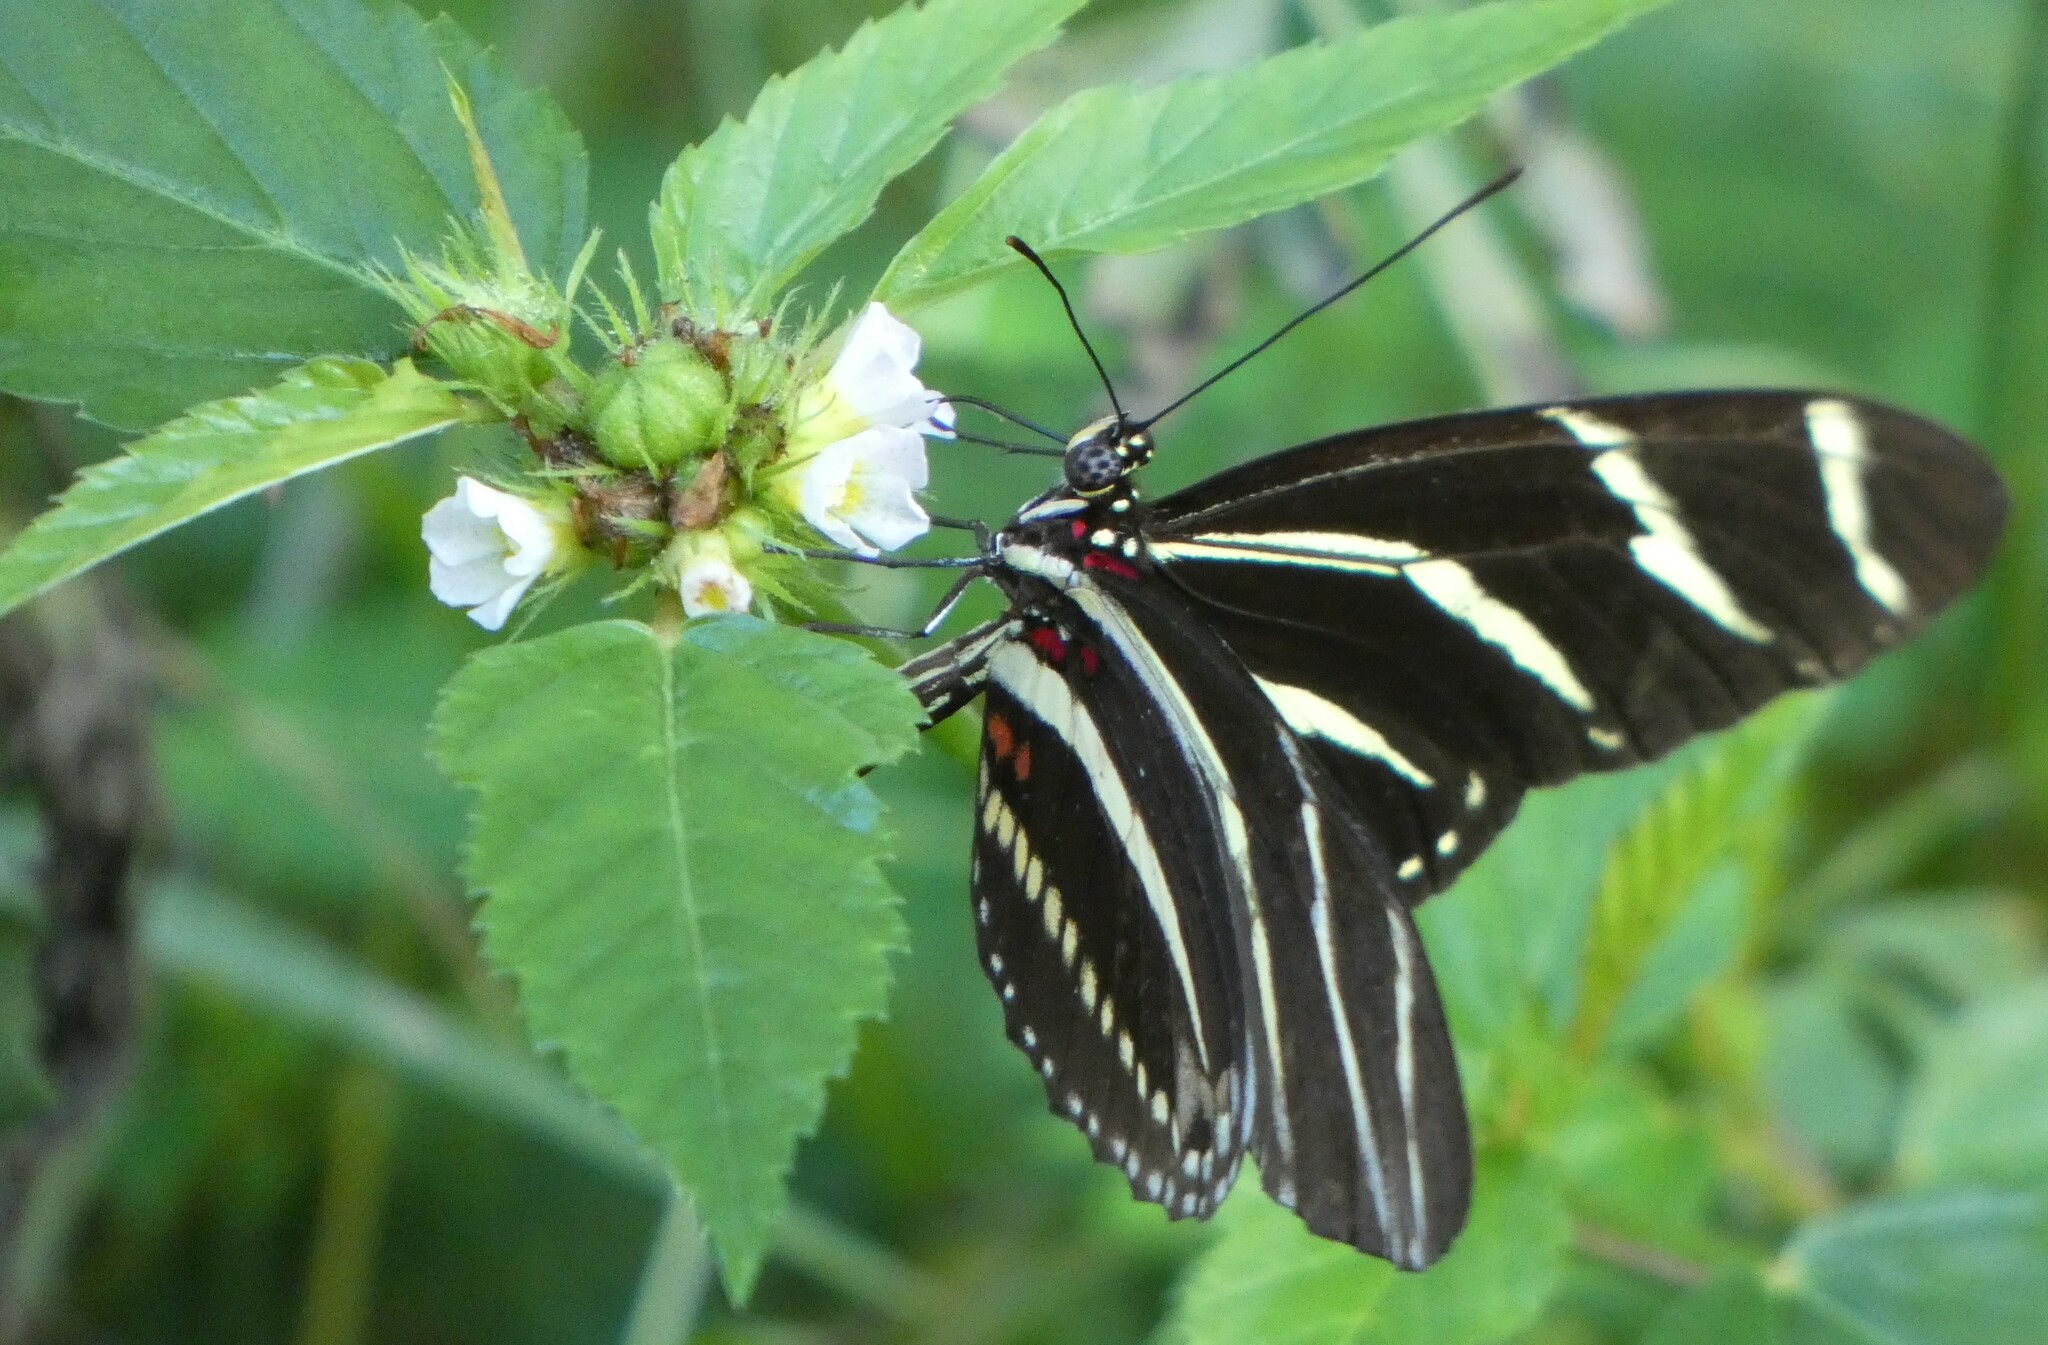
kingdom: Animalia
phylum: Arthropoda
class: Insecta
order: Lepidoptera
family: Nymphalidae
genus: Heliconius
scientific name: Heliconius charithonia
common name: Zebra long wing
